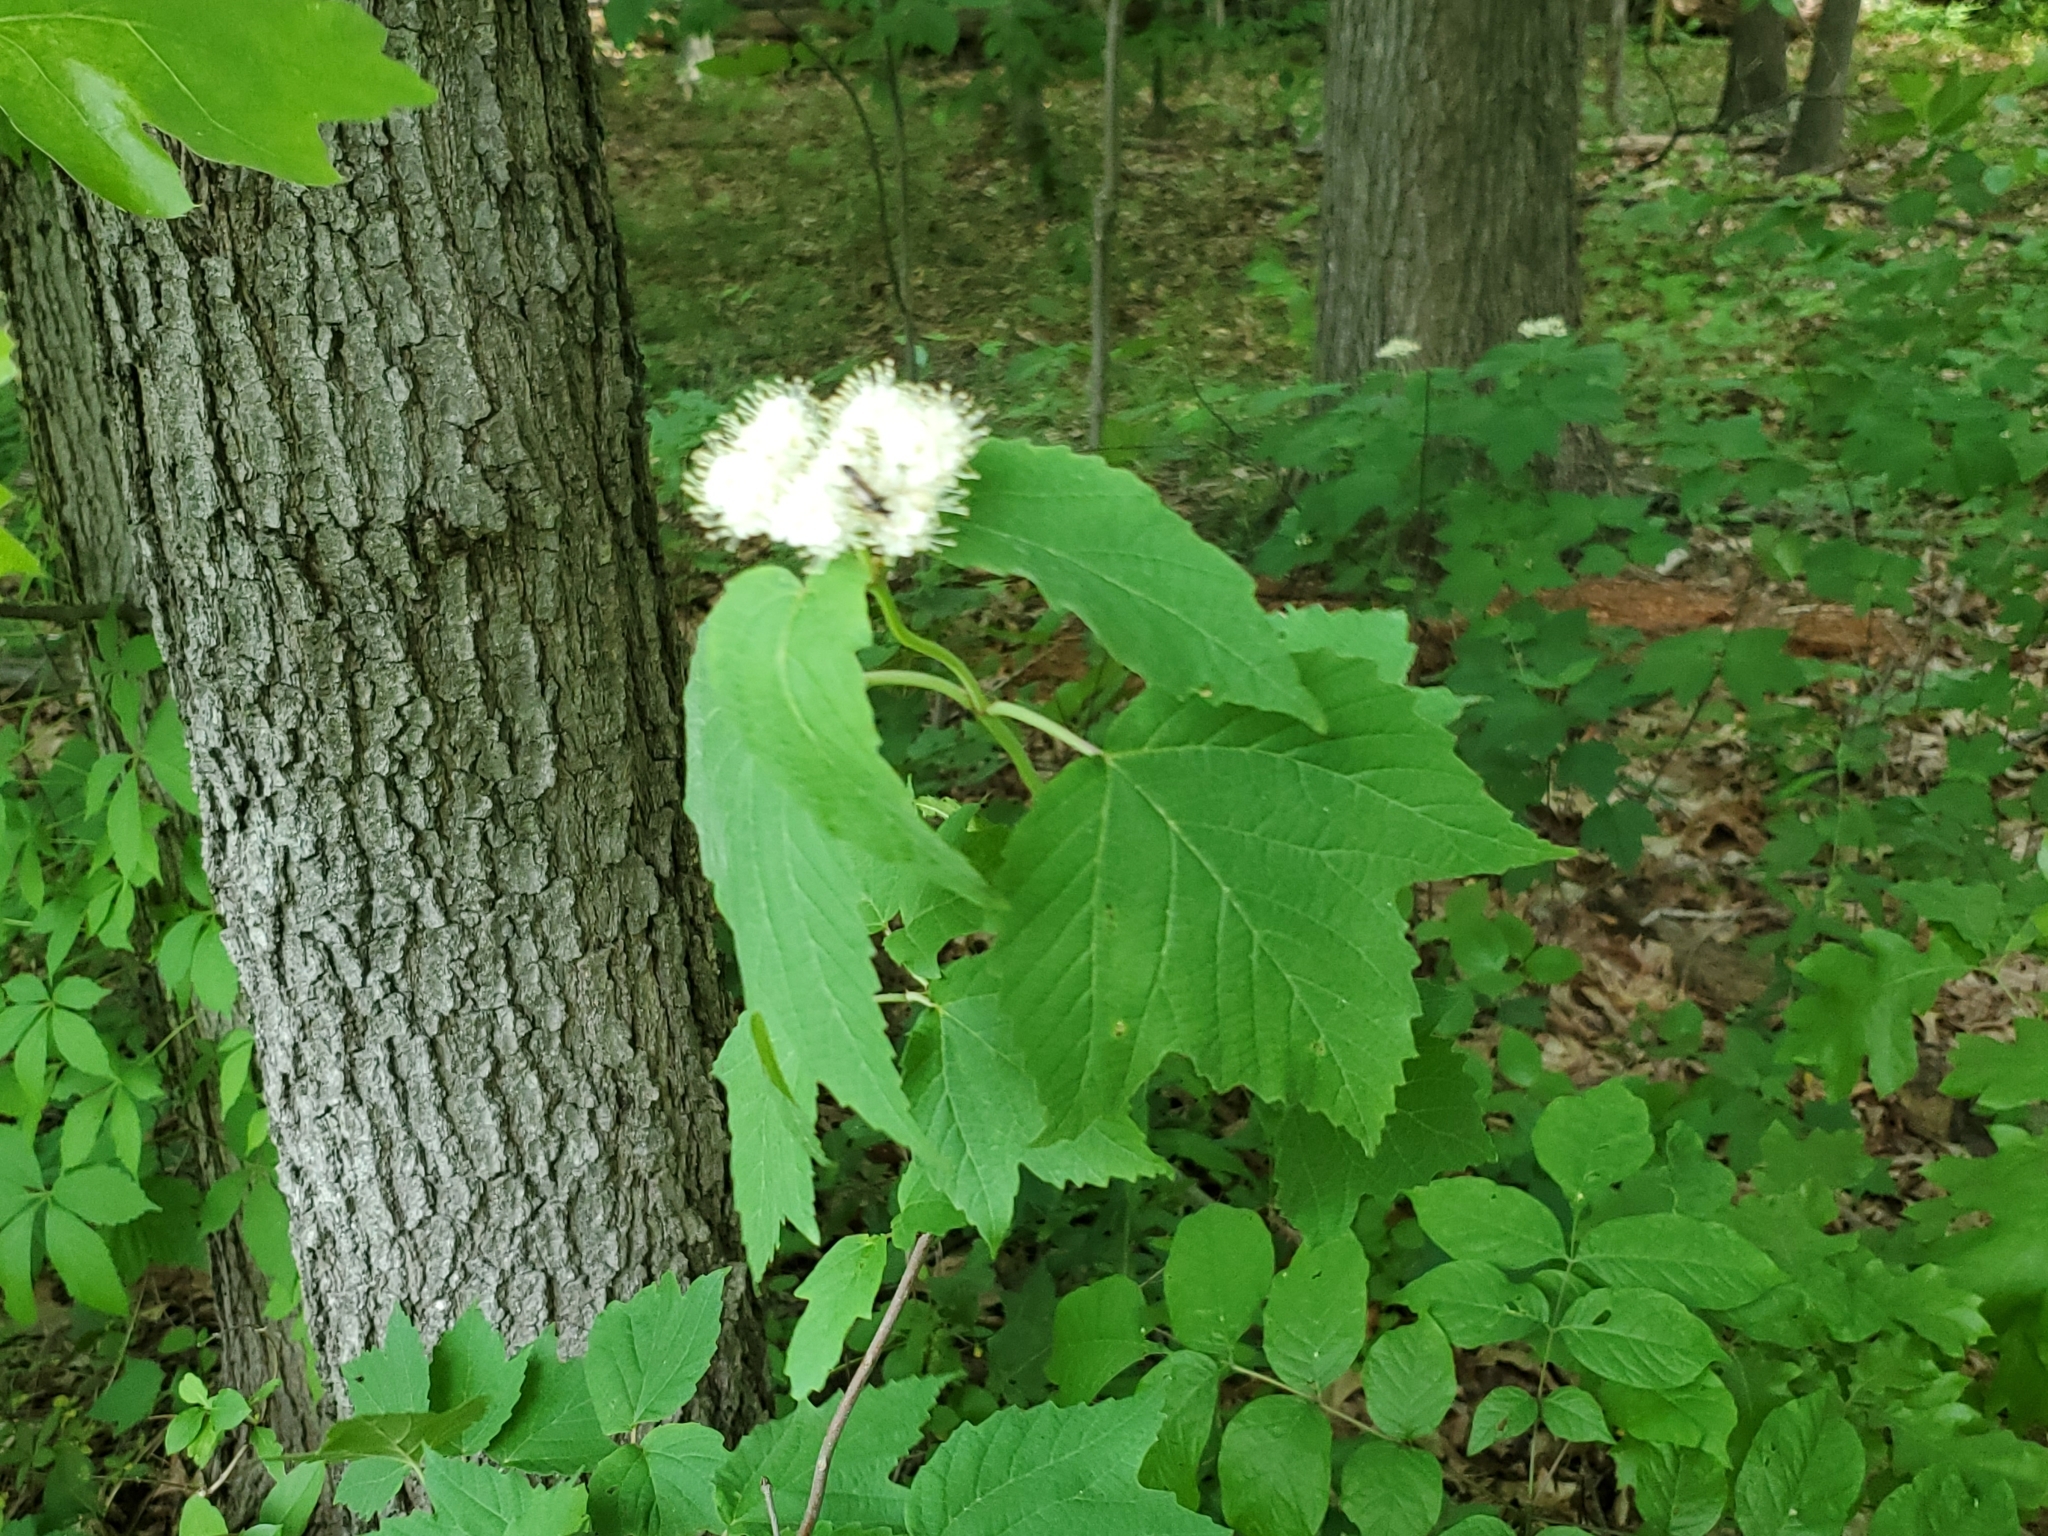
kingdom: Plantae
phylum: Tracheophyta
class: Magnoliopsida
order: Dipsacales
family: Viburnaceae
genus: Viburnum
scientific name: Viburnum acerifolium
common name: Dockmackie
